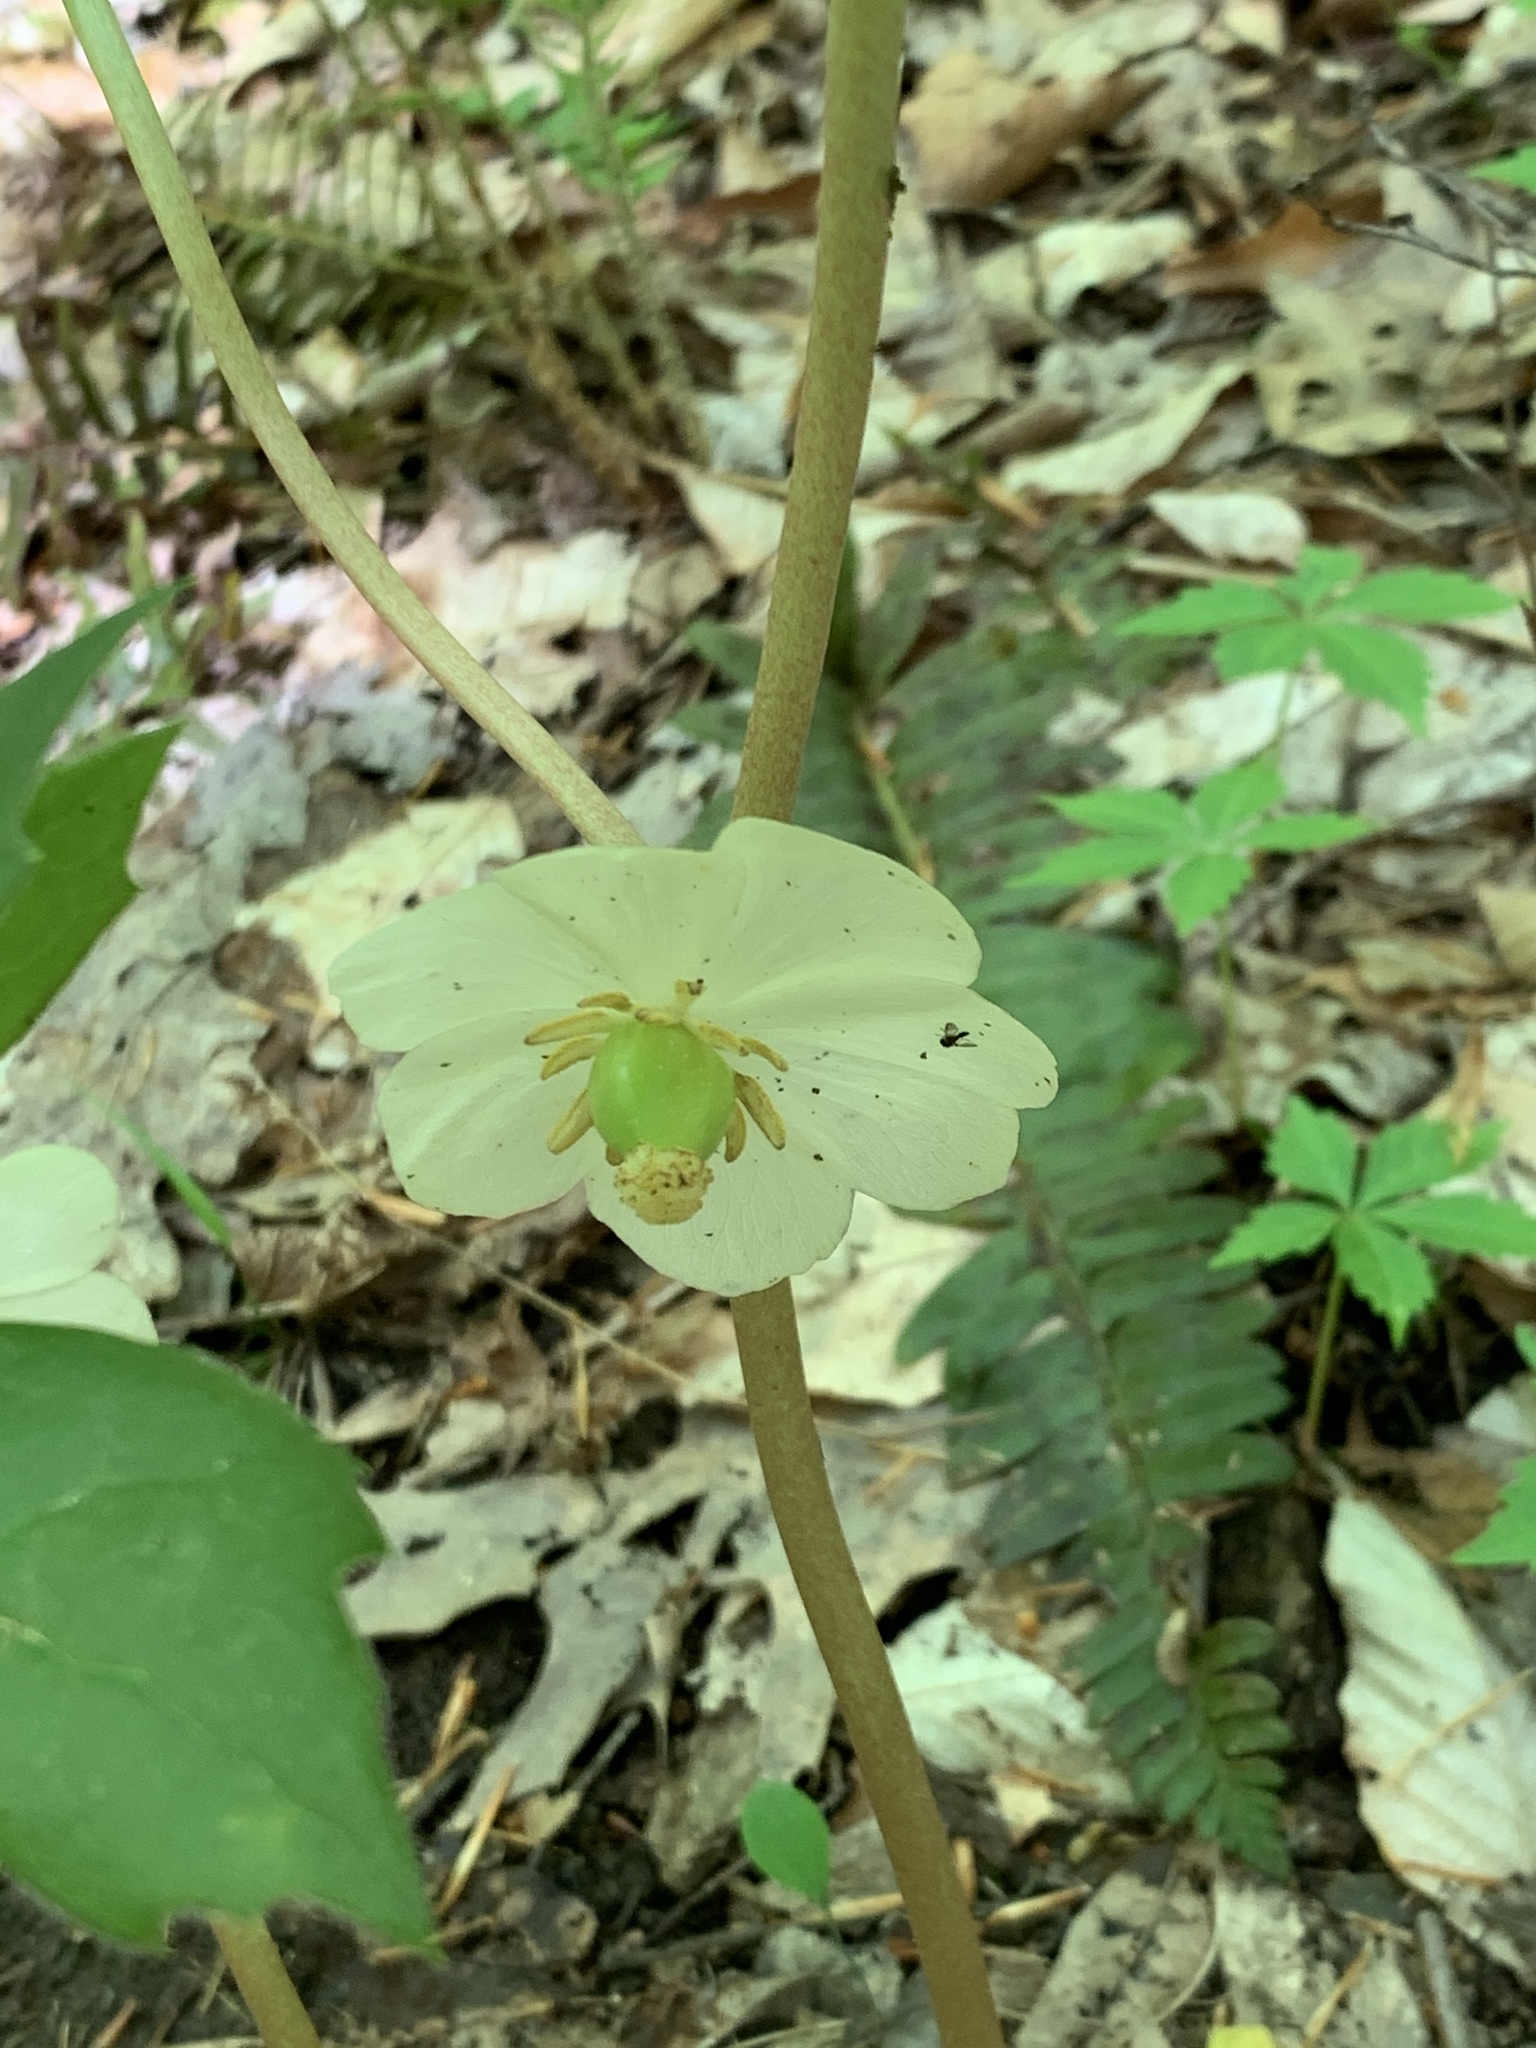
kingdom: Plantae
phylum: Tracheophyta
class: Magnoliopsida
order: Ranunculales
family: Berberidaceae
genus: Podophyllum
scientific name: Podophyllum peltatum
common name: Wild mandrake
